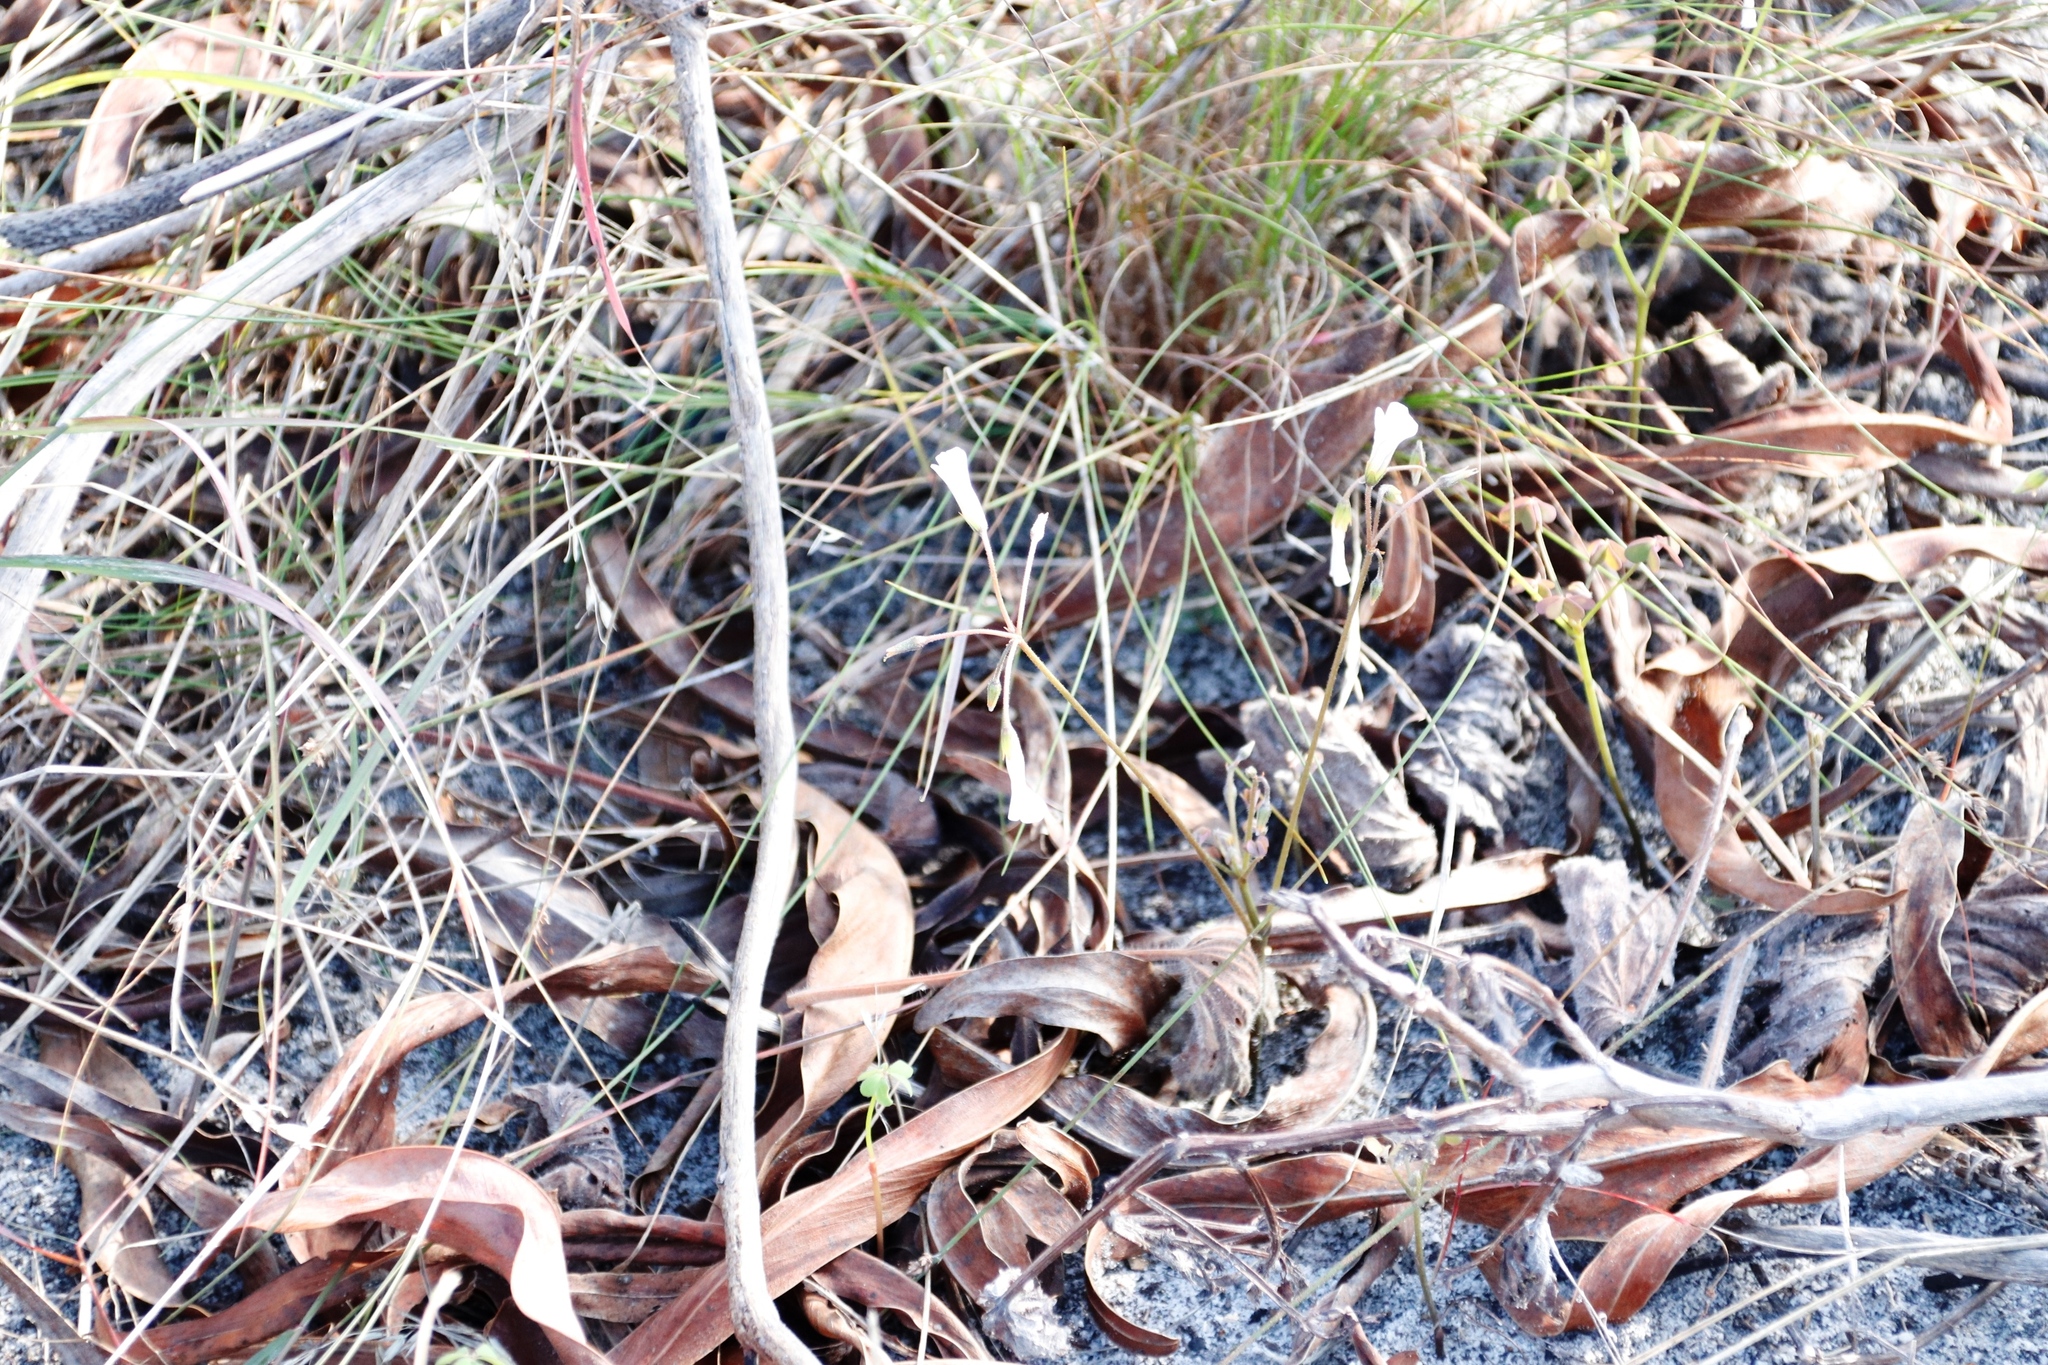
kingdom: Plantae
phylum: Tracheophyta
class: Magnoliopsida
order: Oxalidales
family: Oxalidaceae
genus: Oxalis
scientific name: Oxalis
